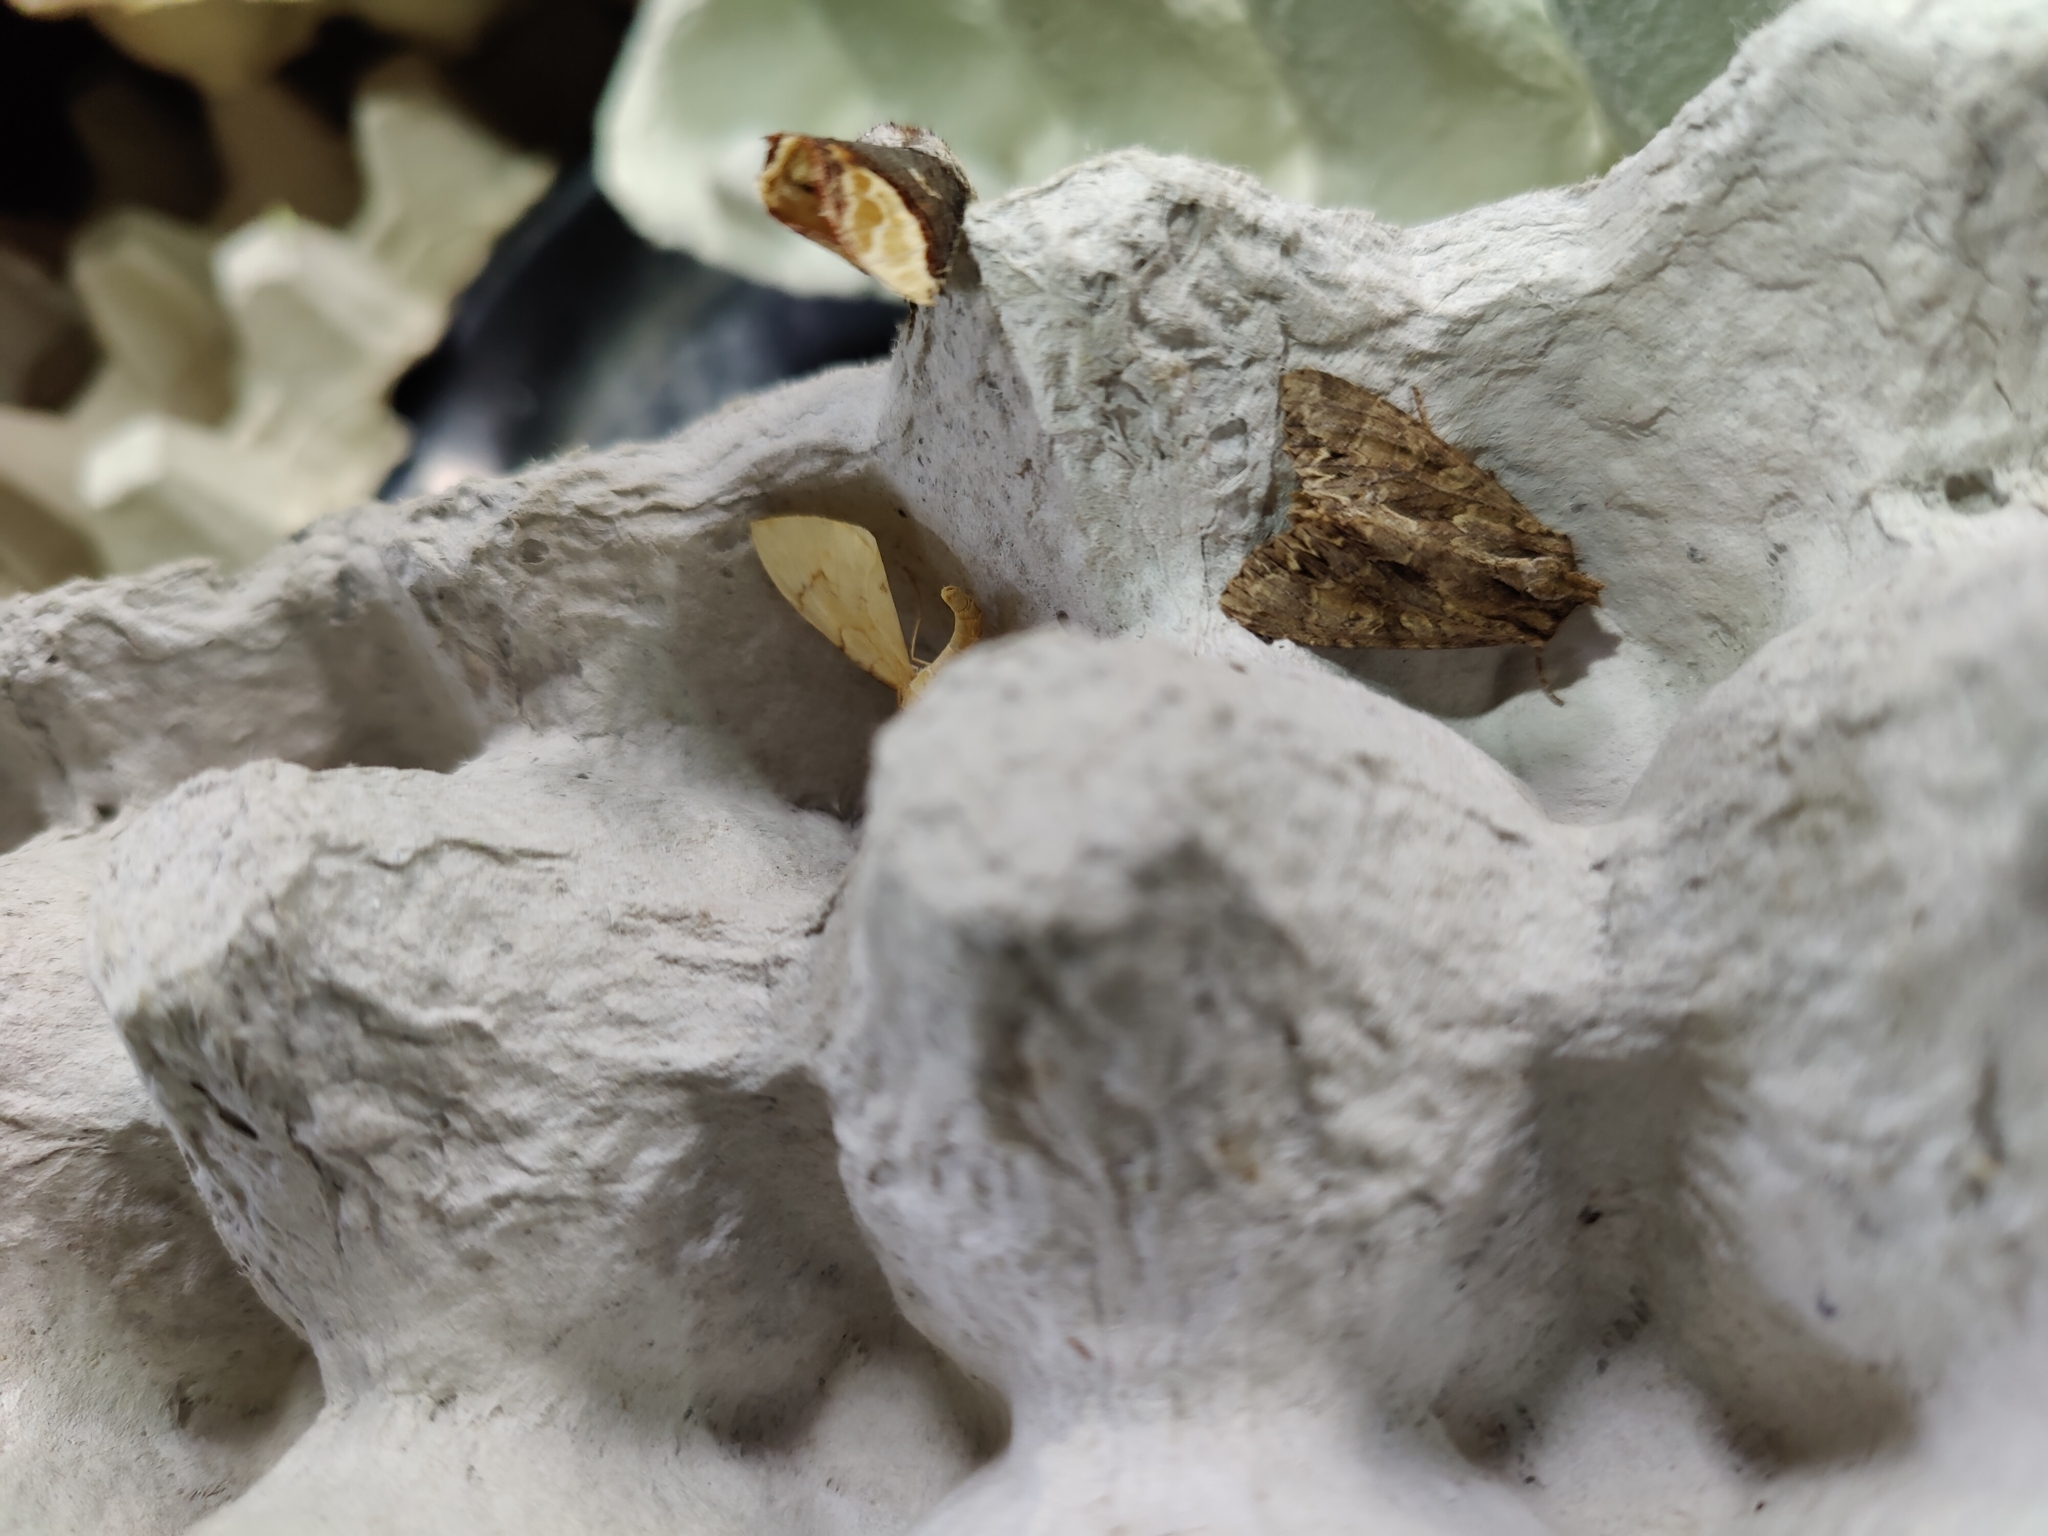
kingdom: Animalia
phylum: Arthropoda
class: Insecta
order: Lepidoptera
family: Noctuidae
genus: Apamea
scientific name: Apamea monoglypha
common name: Dark arches
